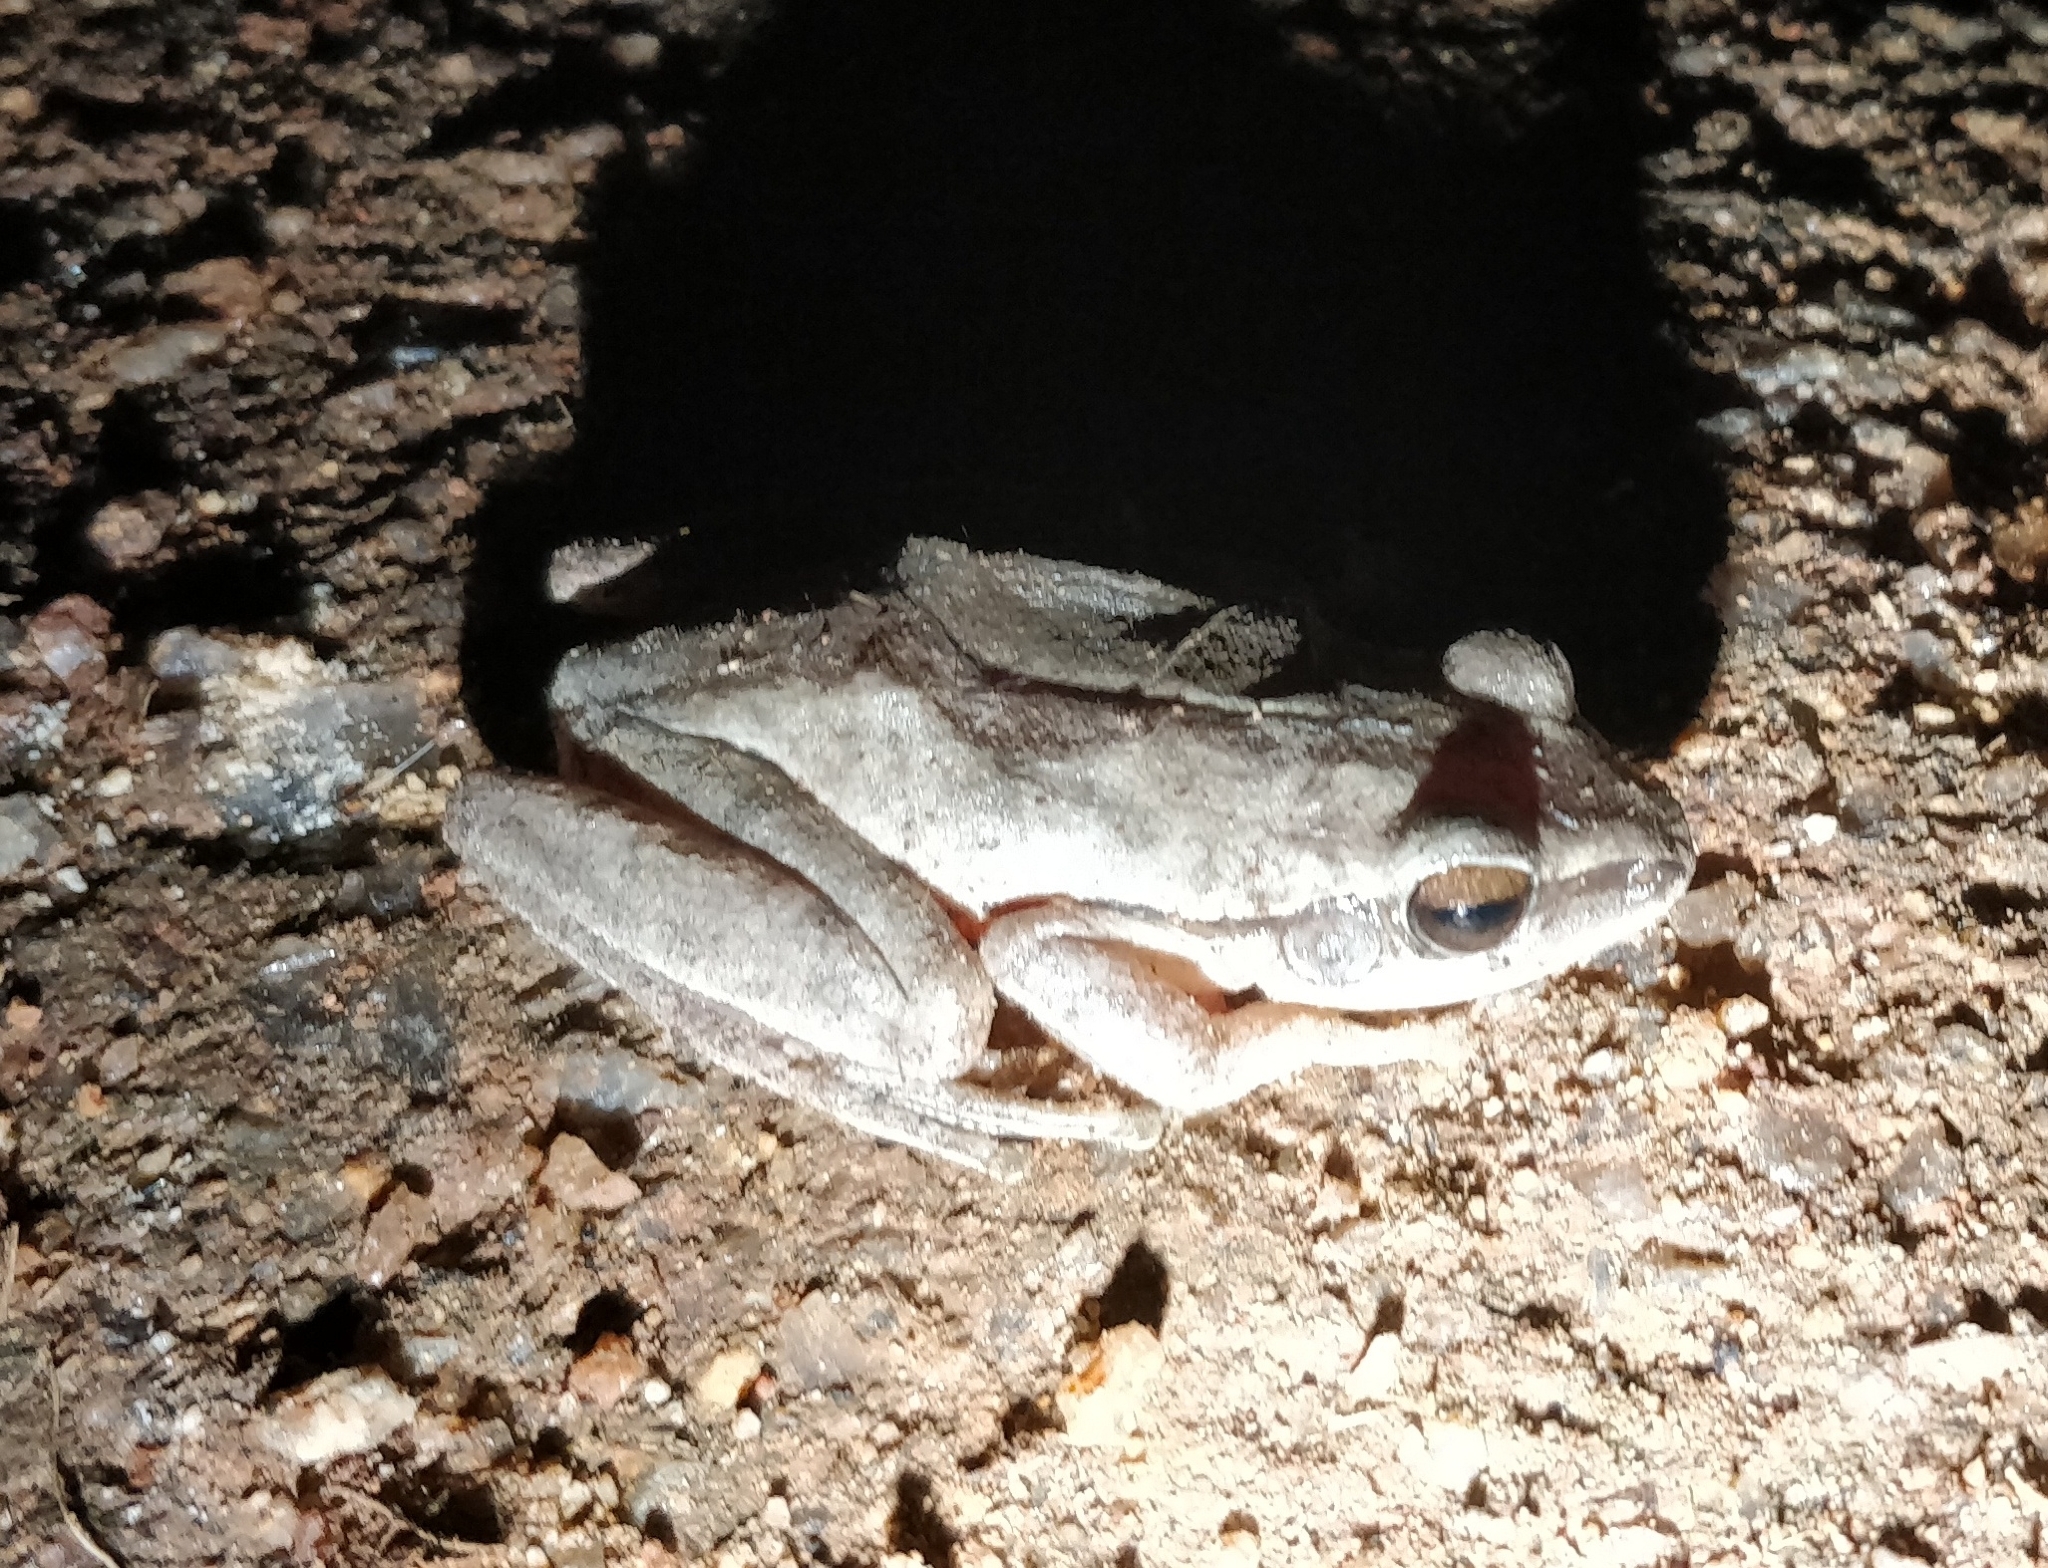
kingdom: Animalia
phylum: Chordata
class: Amphibia
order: Anura
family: Rhacophoridae
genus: Polypedates
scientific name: Polypedates maculatus
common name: Himalayan tree frog
